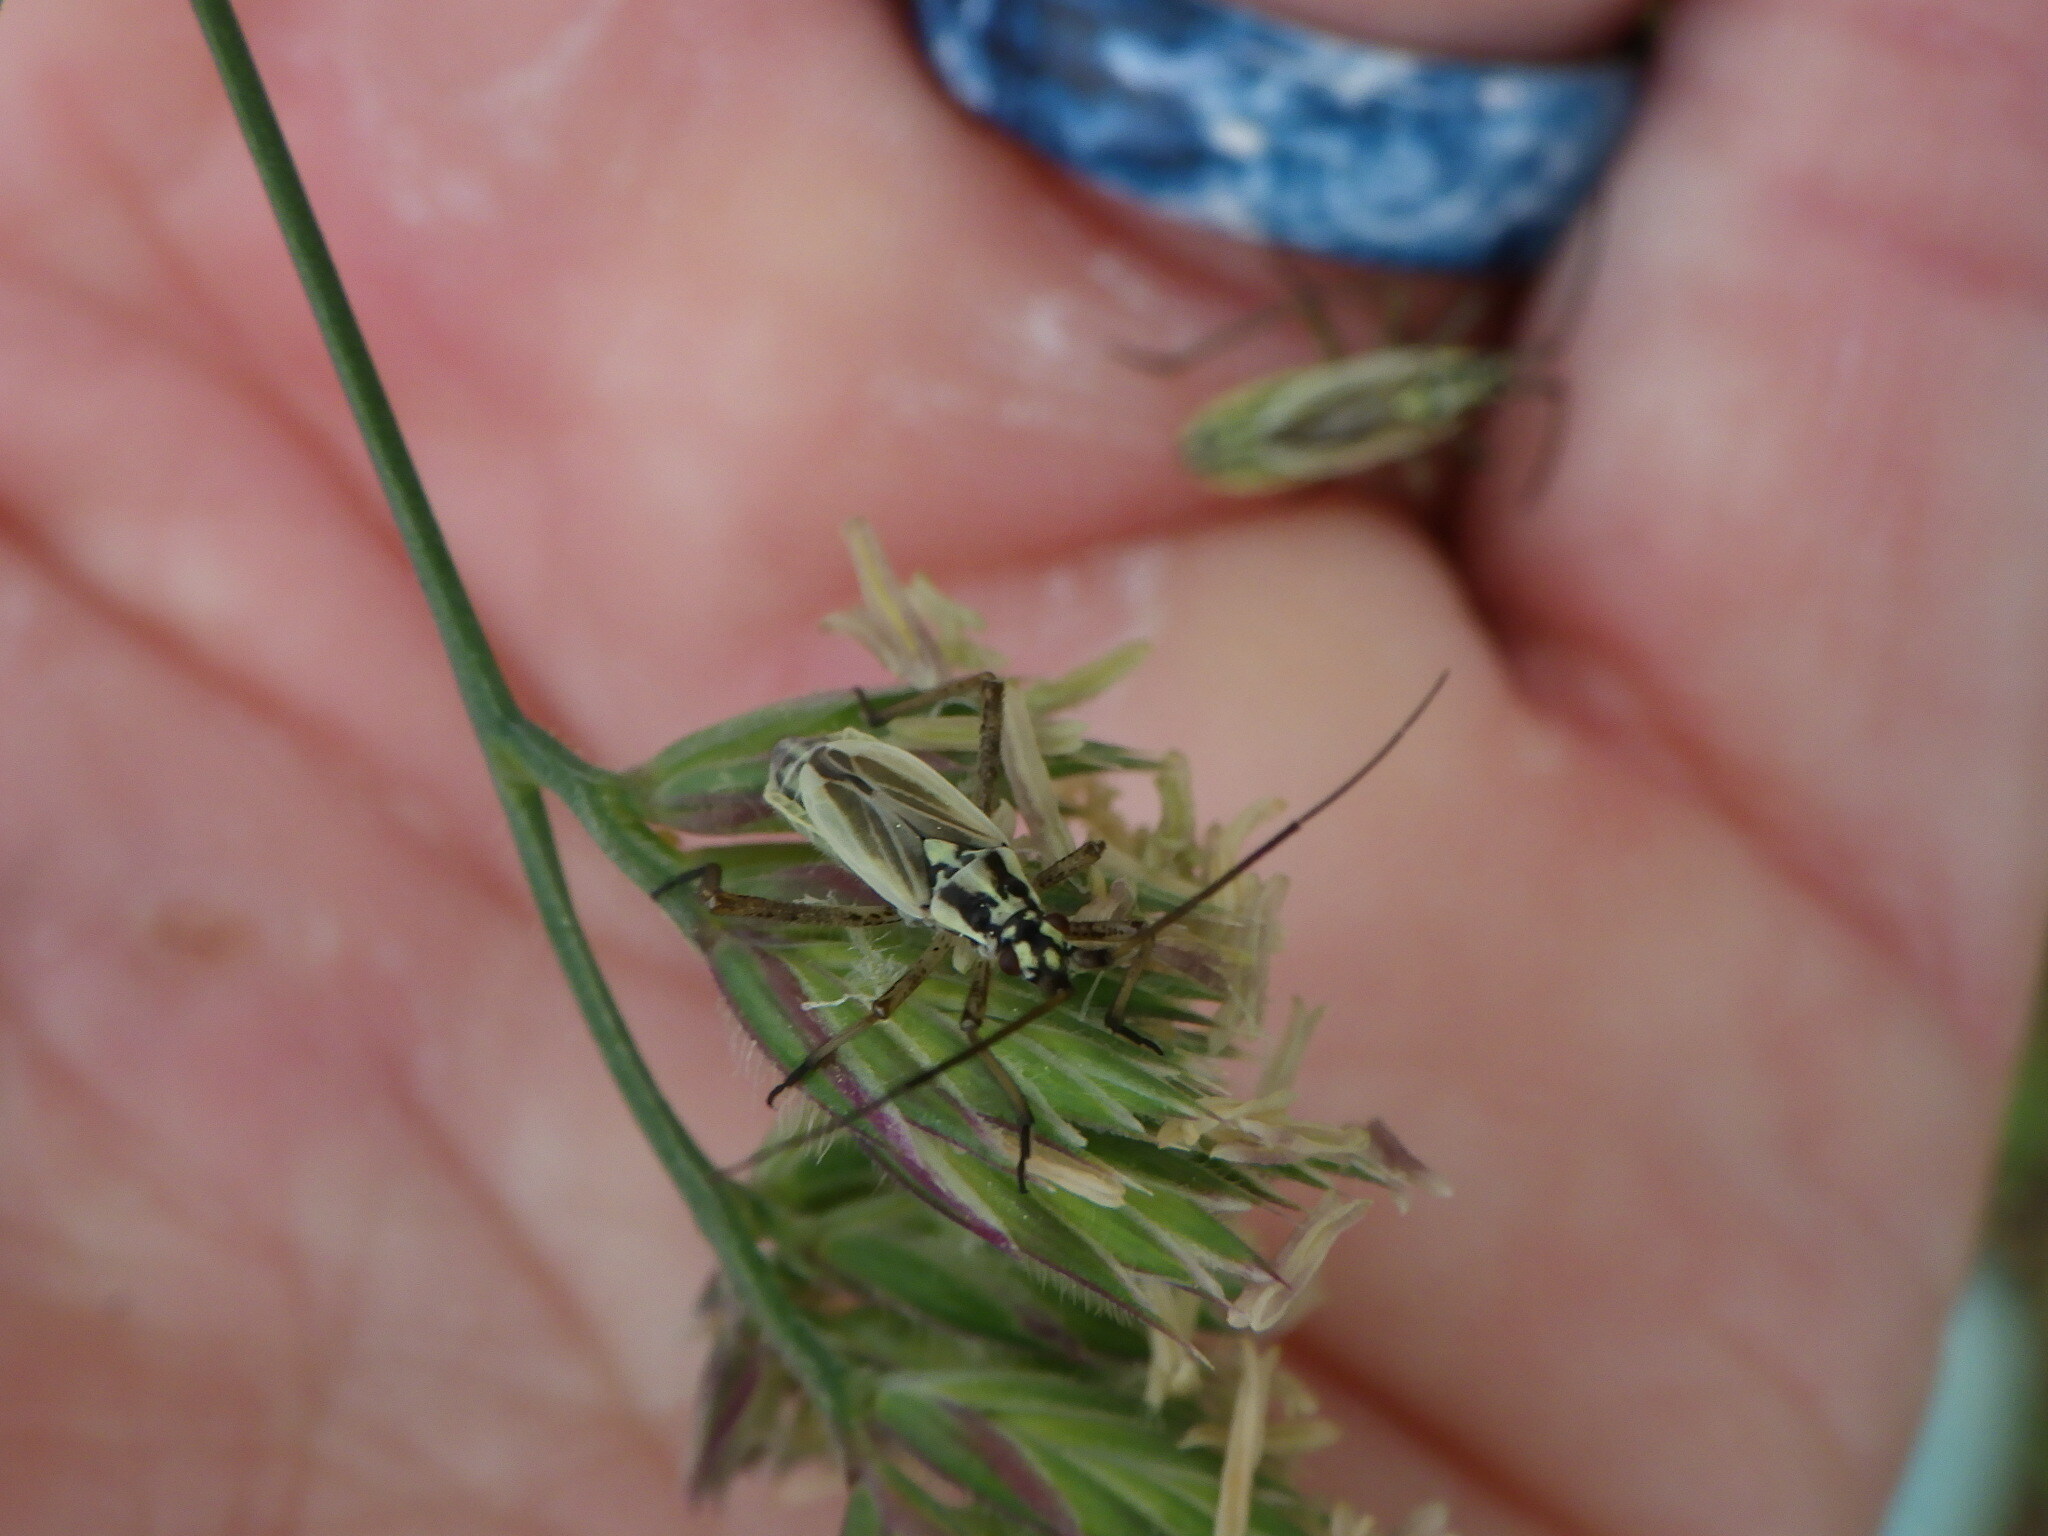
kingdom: Animalia
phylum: Arthropoda
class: Insecta
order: Hemiptera
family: Miridae
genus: Leptopterna
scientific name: Leptopterna dolabrata
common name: Meadow plant bug
